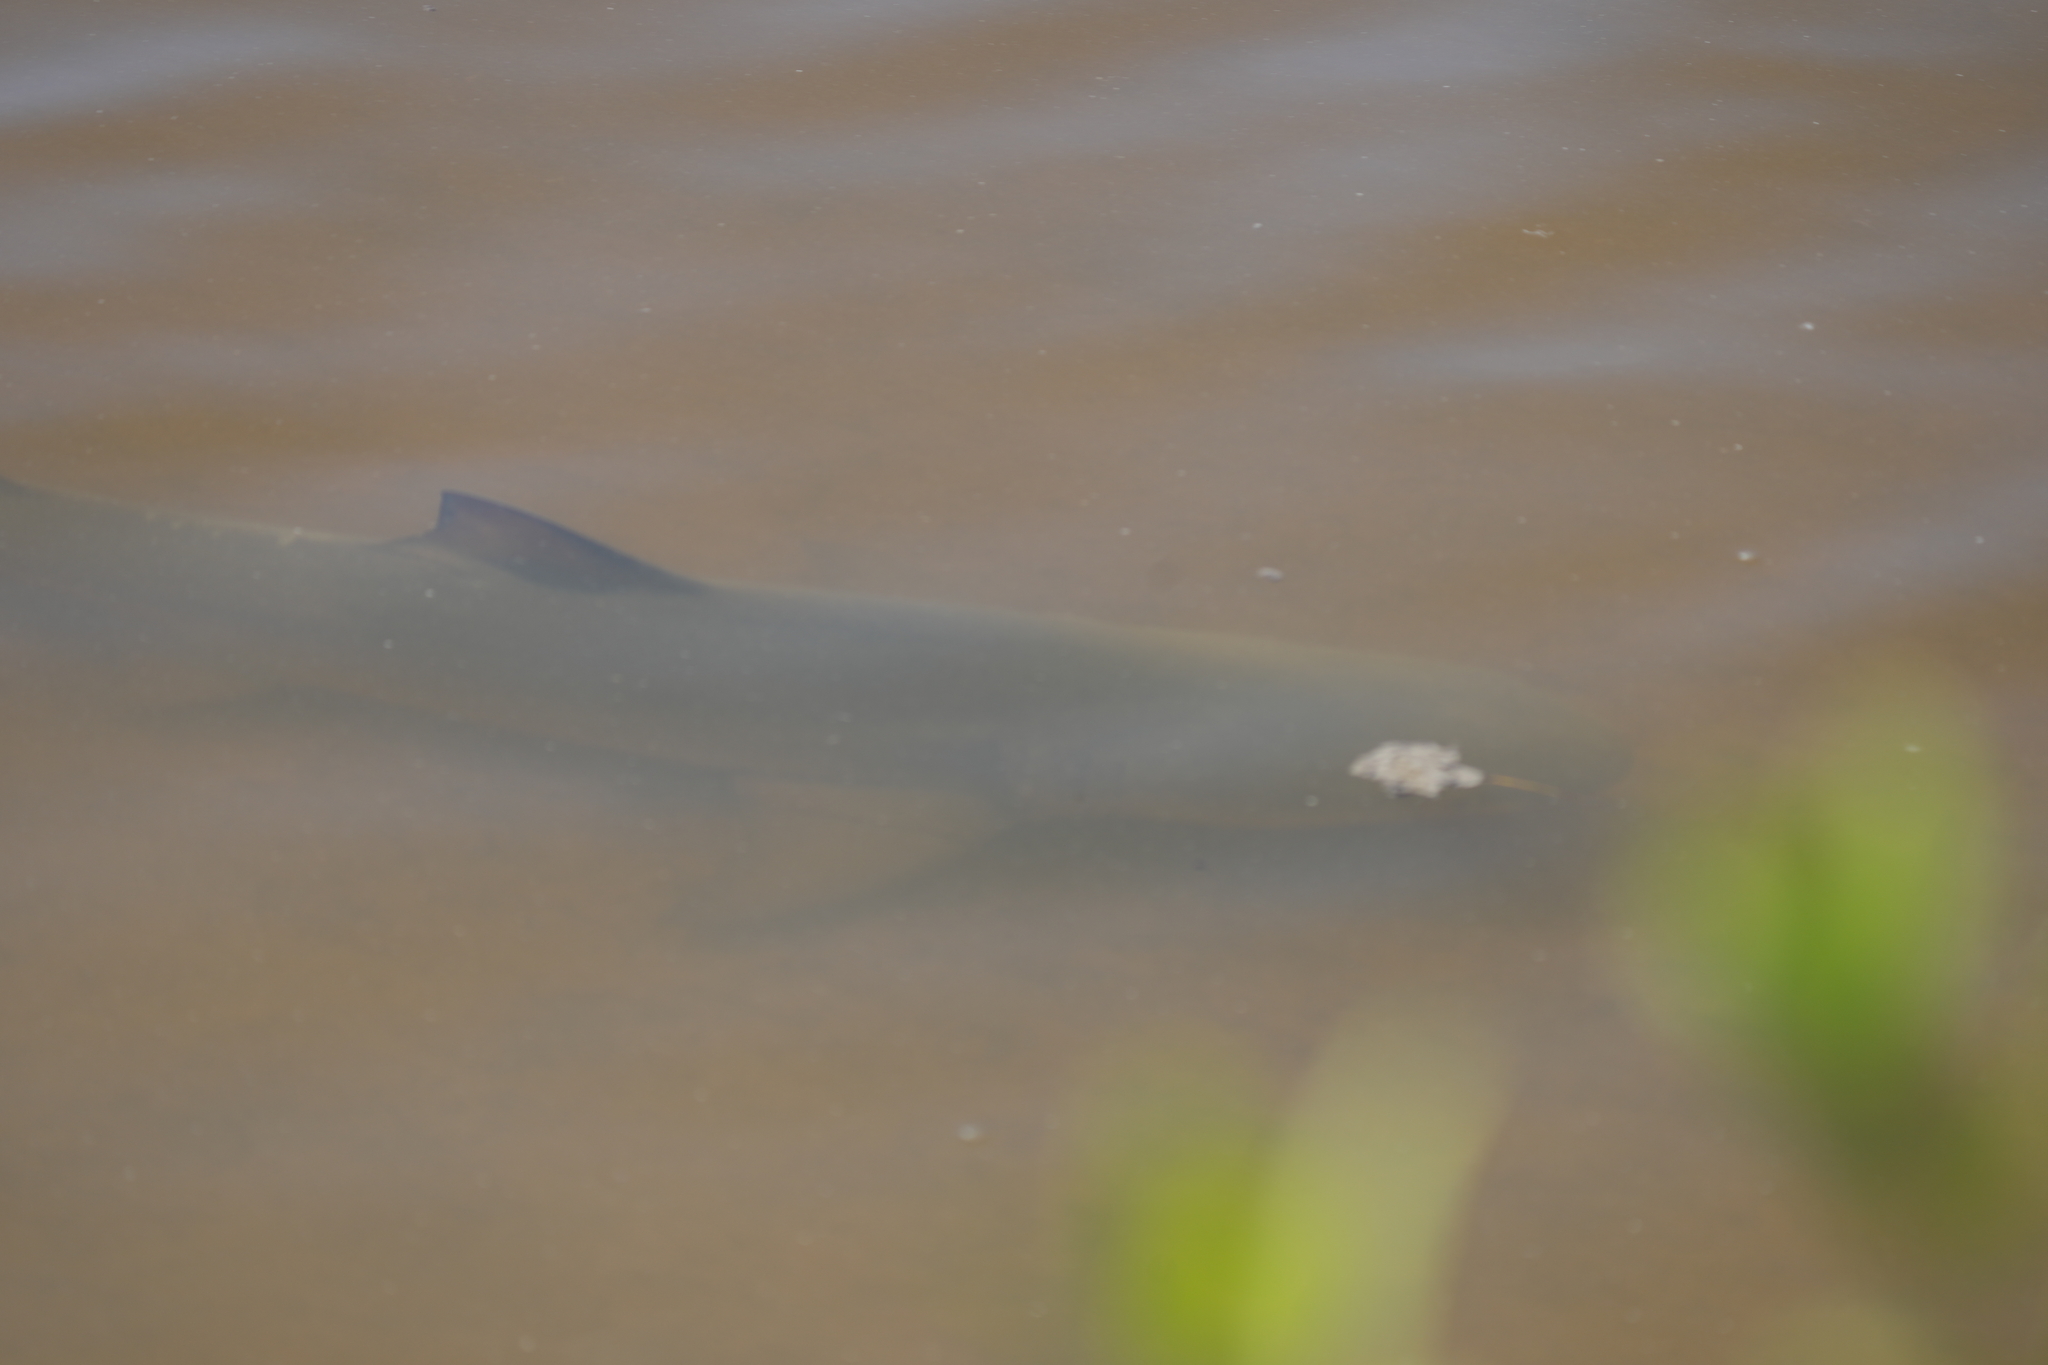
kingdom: Animalia
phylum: Chordata
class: Elasmobranchii
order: Carcharhiniformes
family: Carcharhinidae
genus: Negaprion
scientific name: Negaprion brevirostris
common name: Lemon shark
